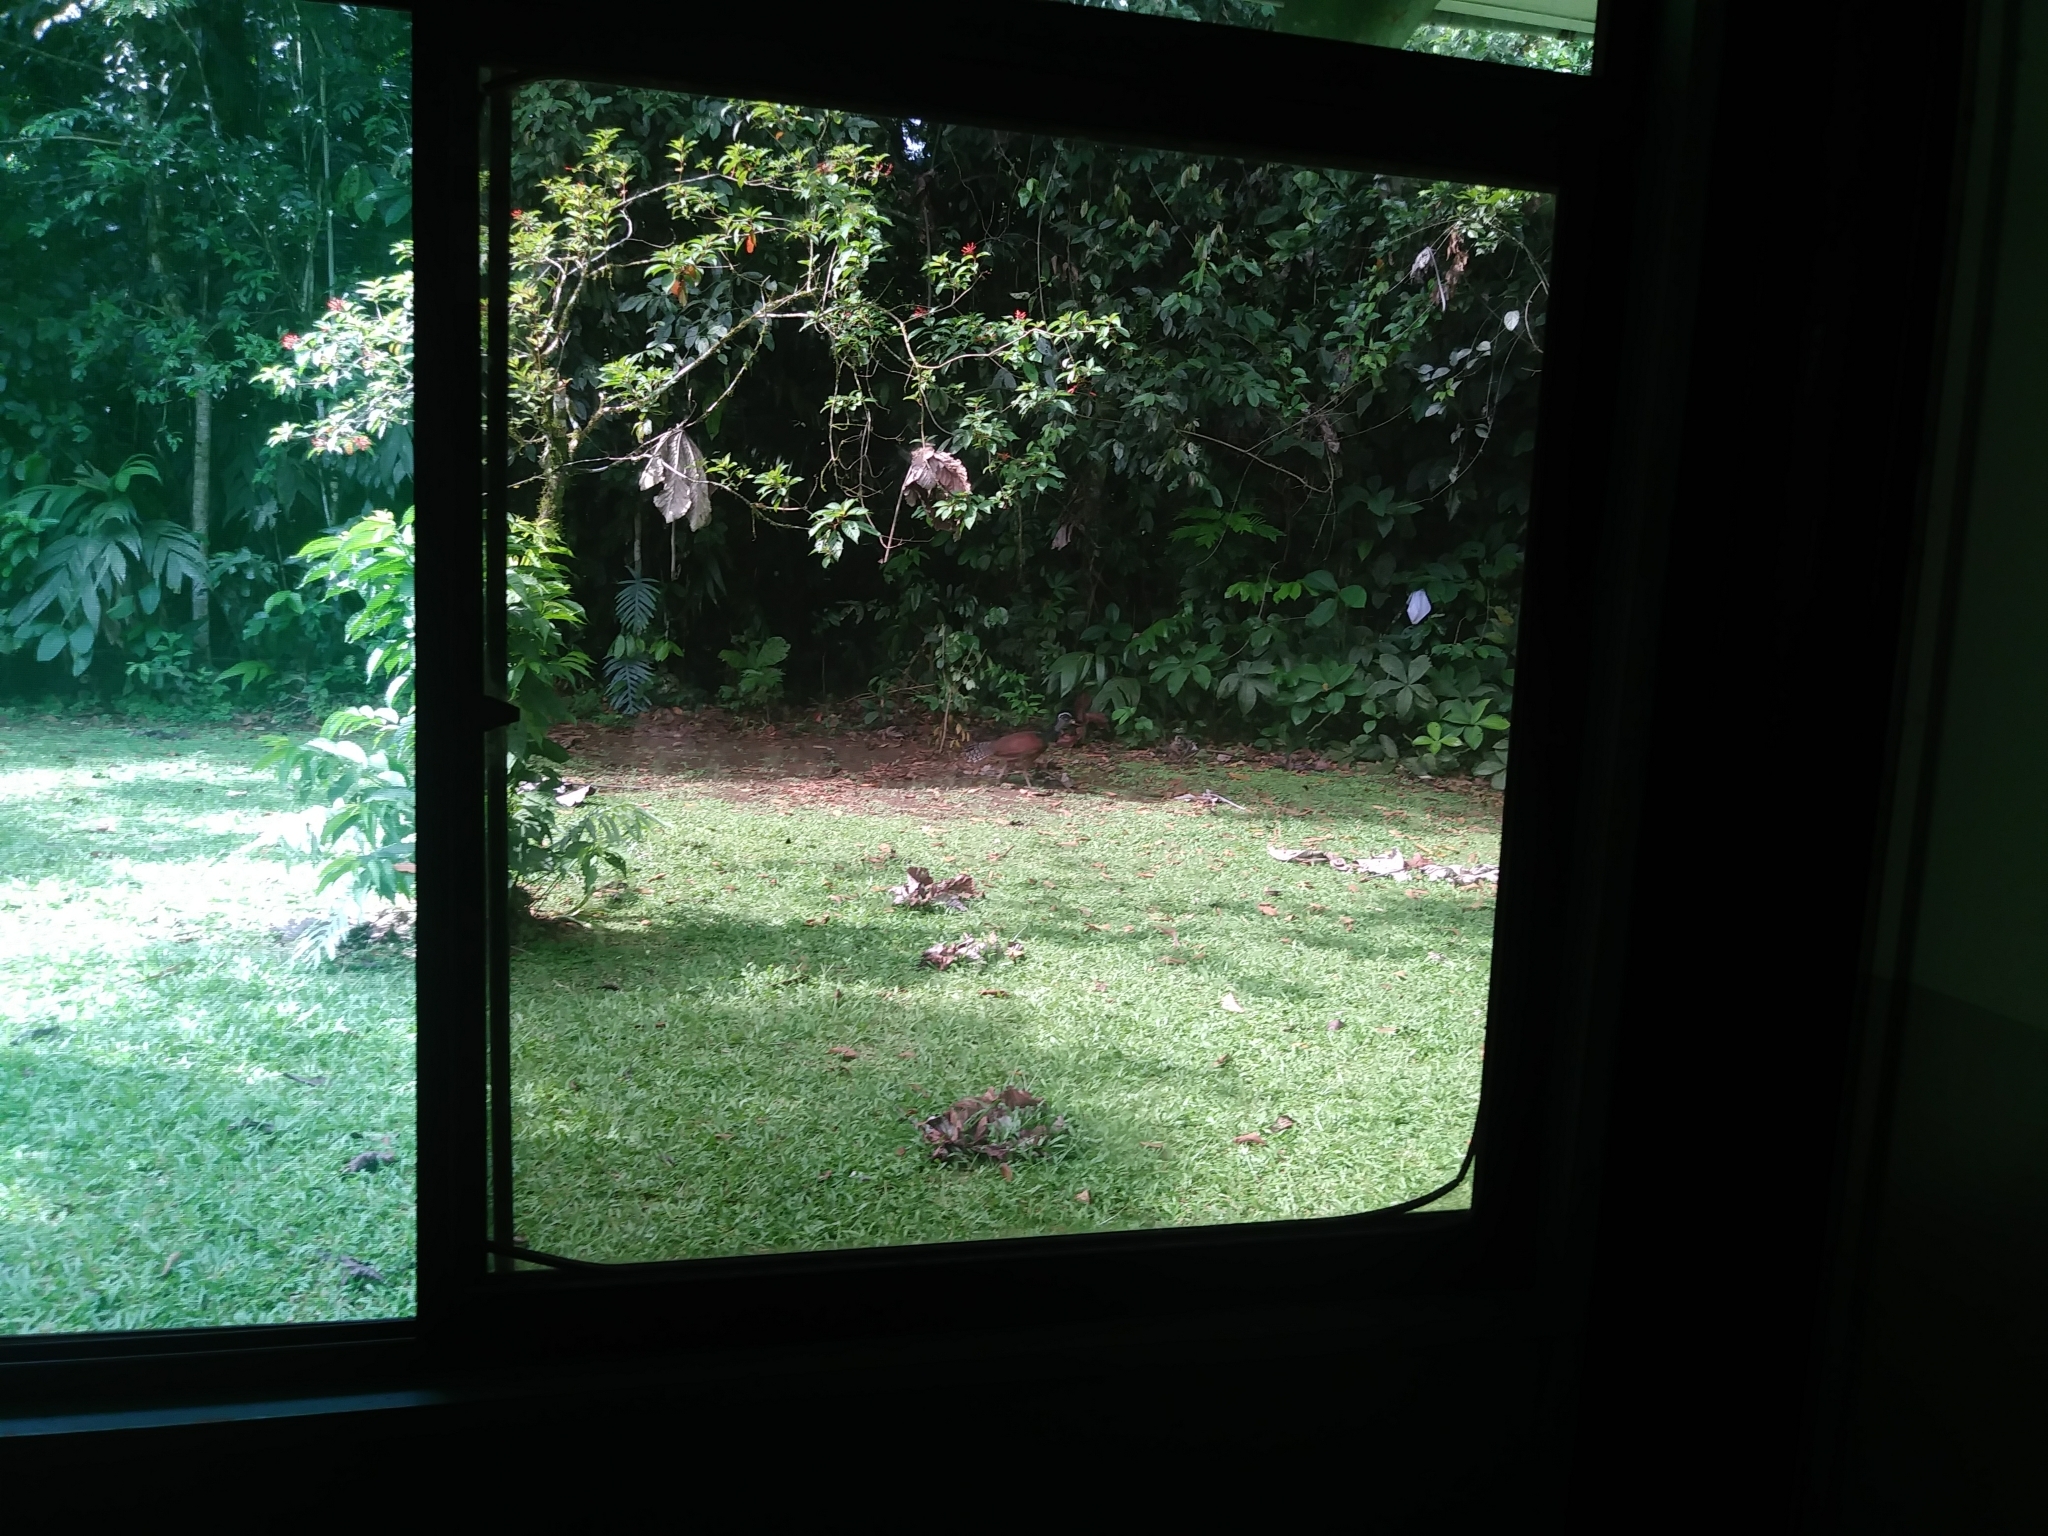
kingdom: Animalia
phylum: Chordata
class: Aves
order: Galliformes
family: Cracidae
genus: Crax
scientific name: Crax rubra
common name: Great curassow
